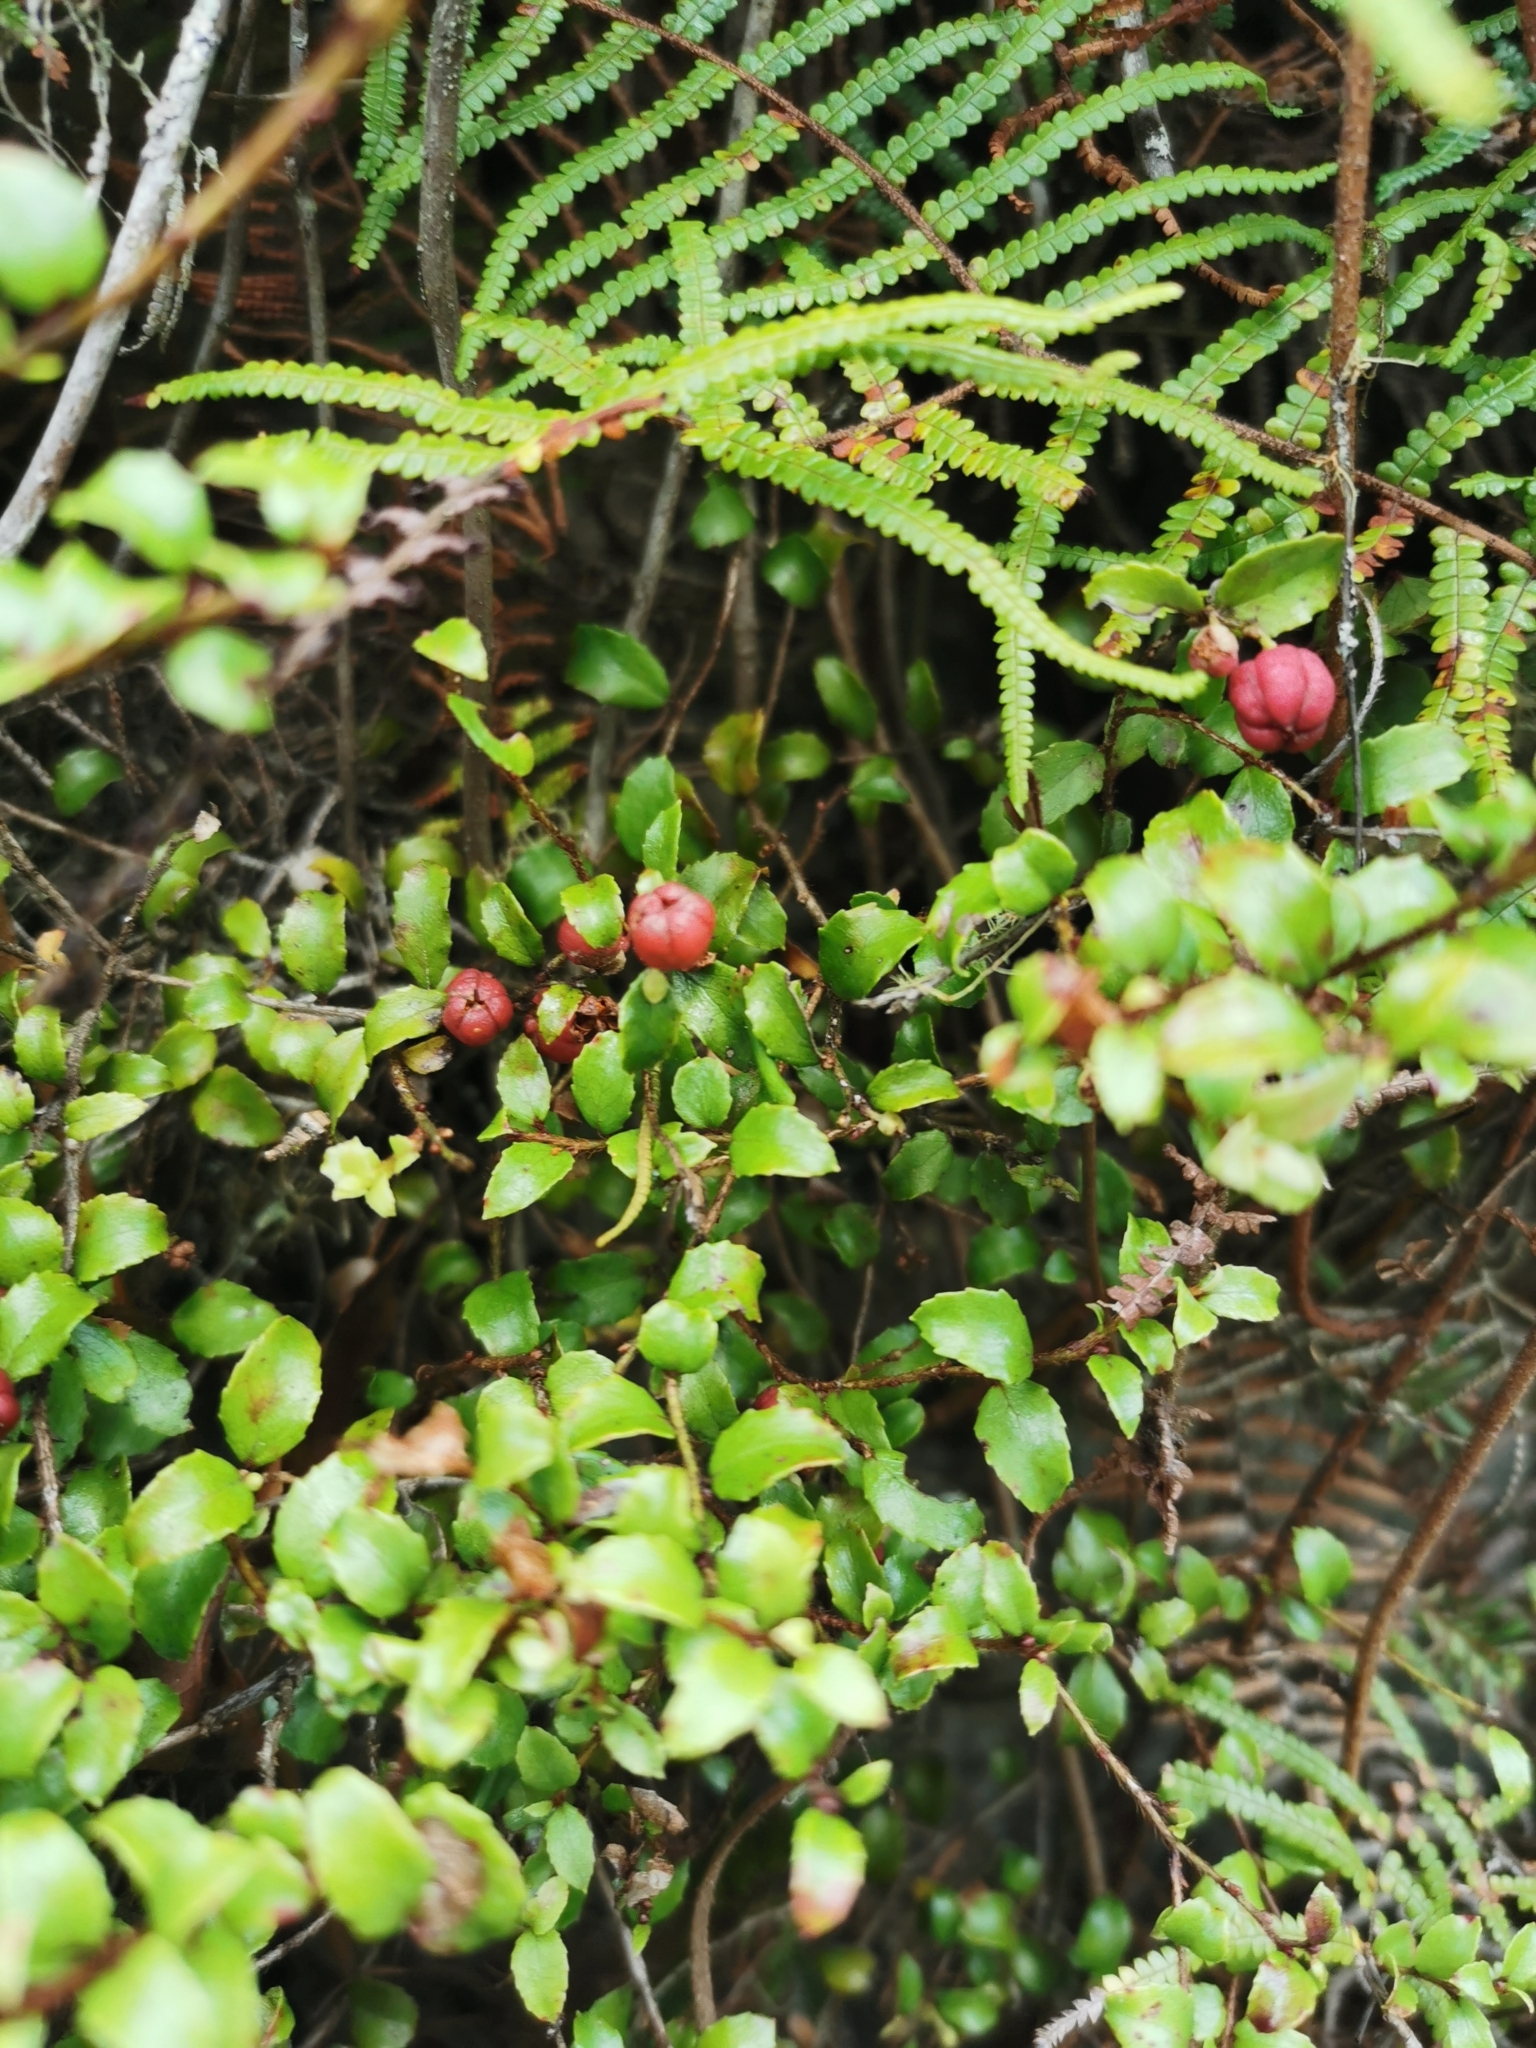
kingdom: Plantae
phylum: Tracheophyta
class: Magnoliopsida
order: Ericales
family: Ericaceae
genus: Gaultheria
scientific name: Gaultheria antipoda
